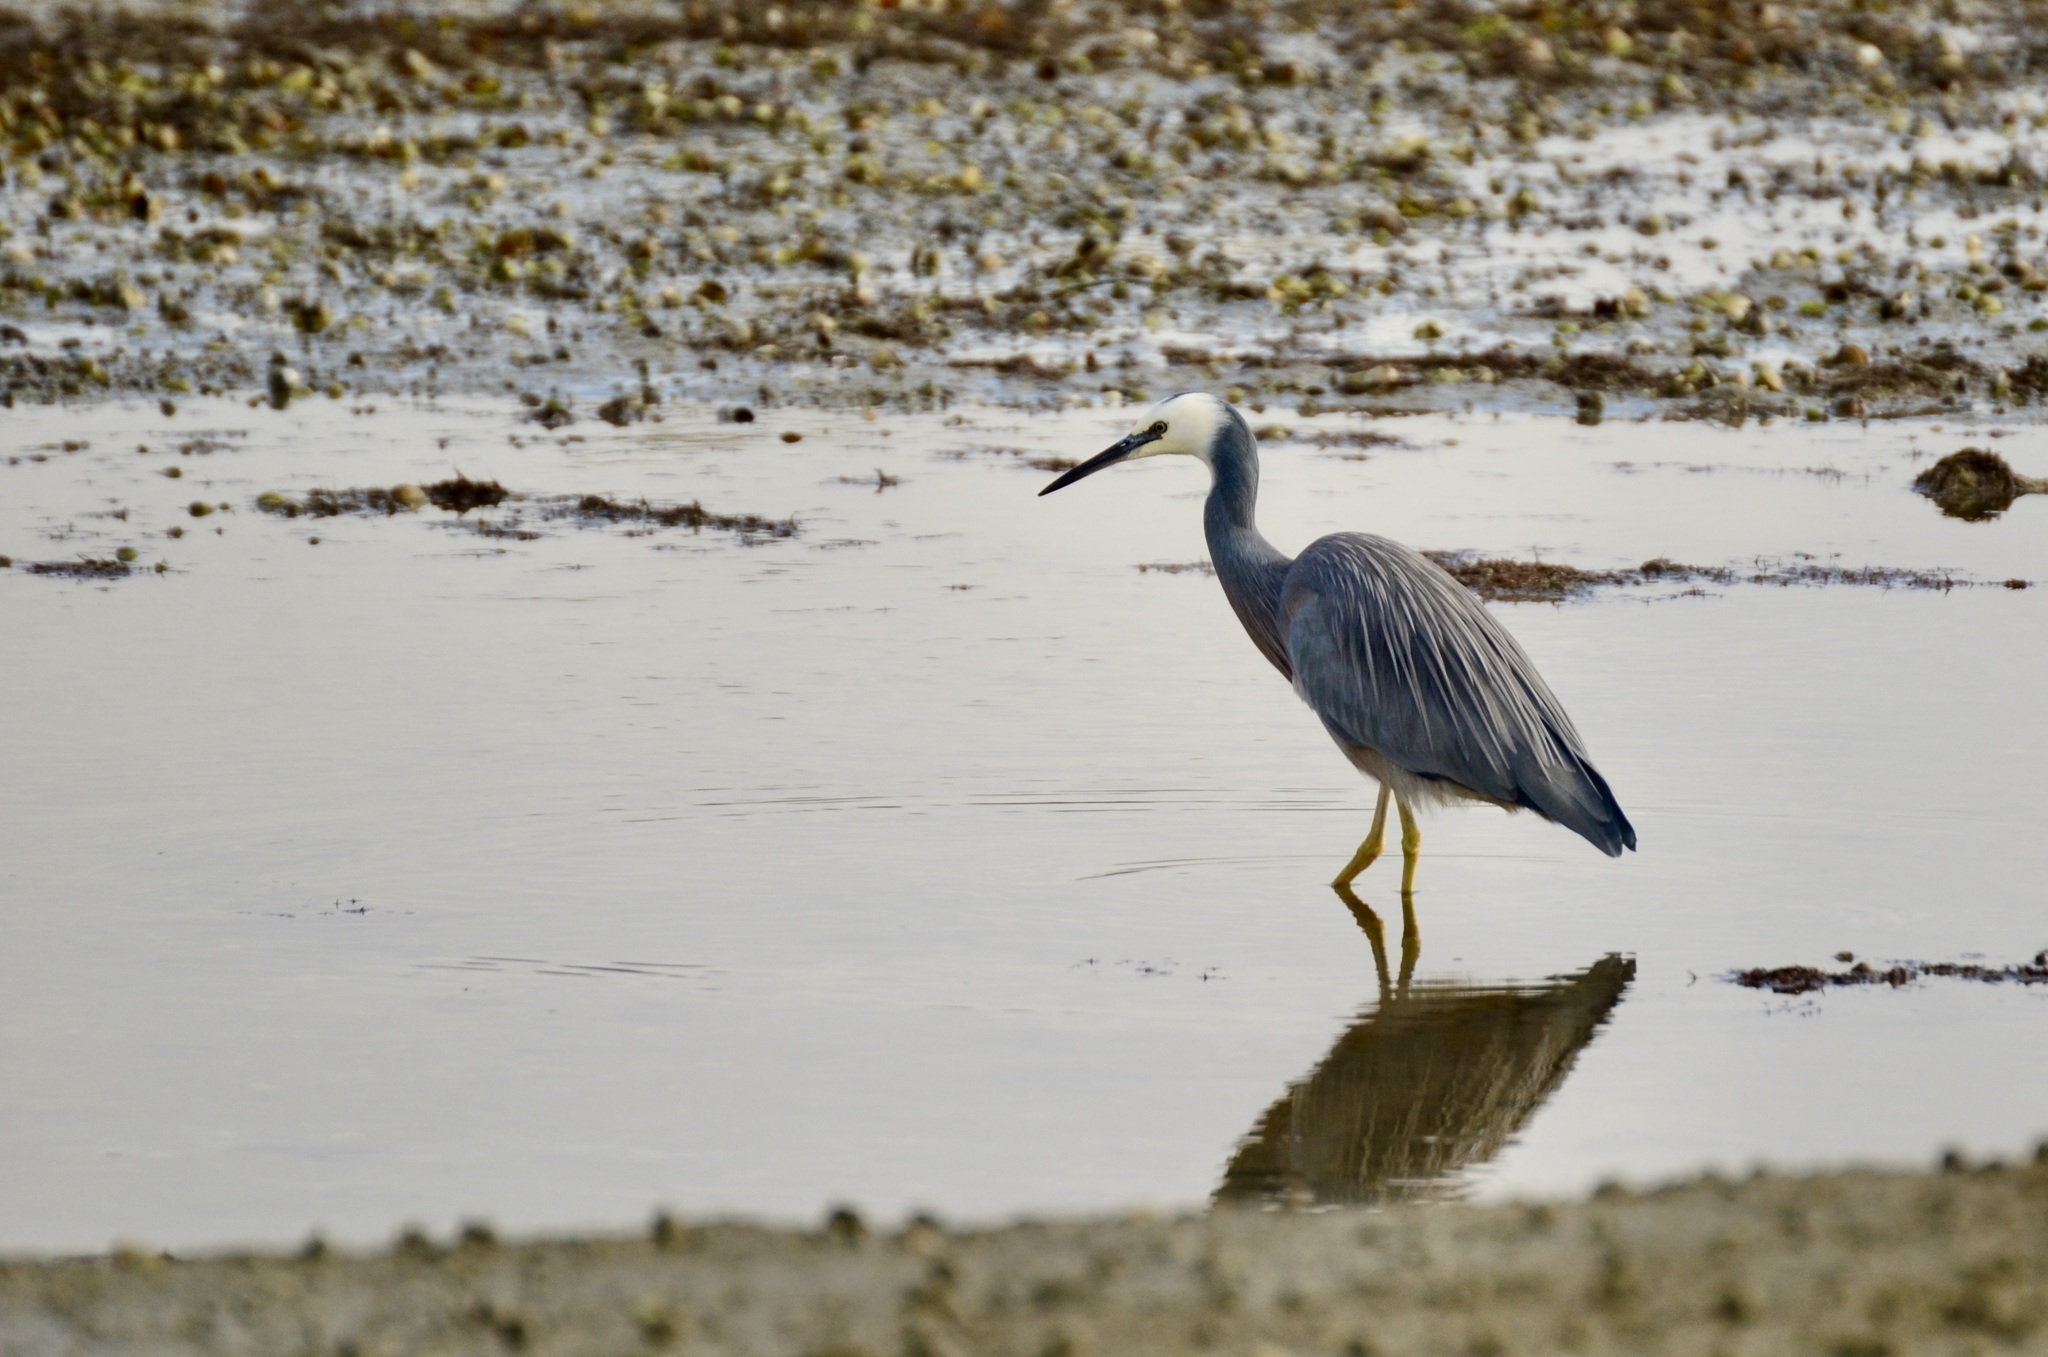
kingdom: Animalia
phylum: Chordata
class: Aves
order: Pelecaniformes
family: Ardeidae
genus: Egretta
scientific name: Egretta novaehollandiae
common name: White-faced heron
